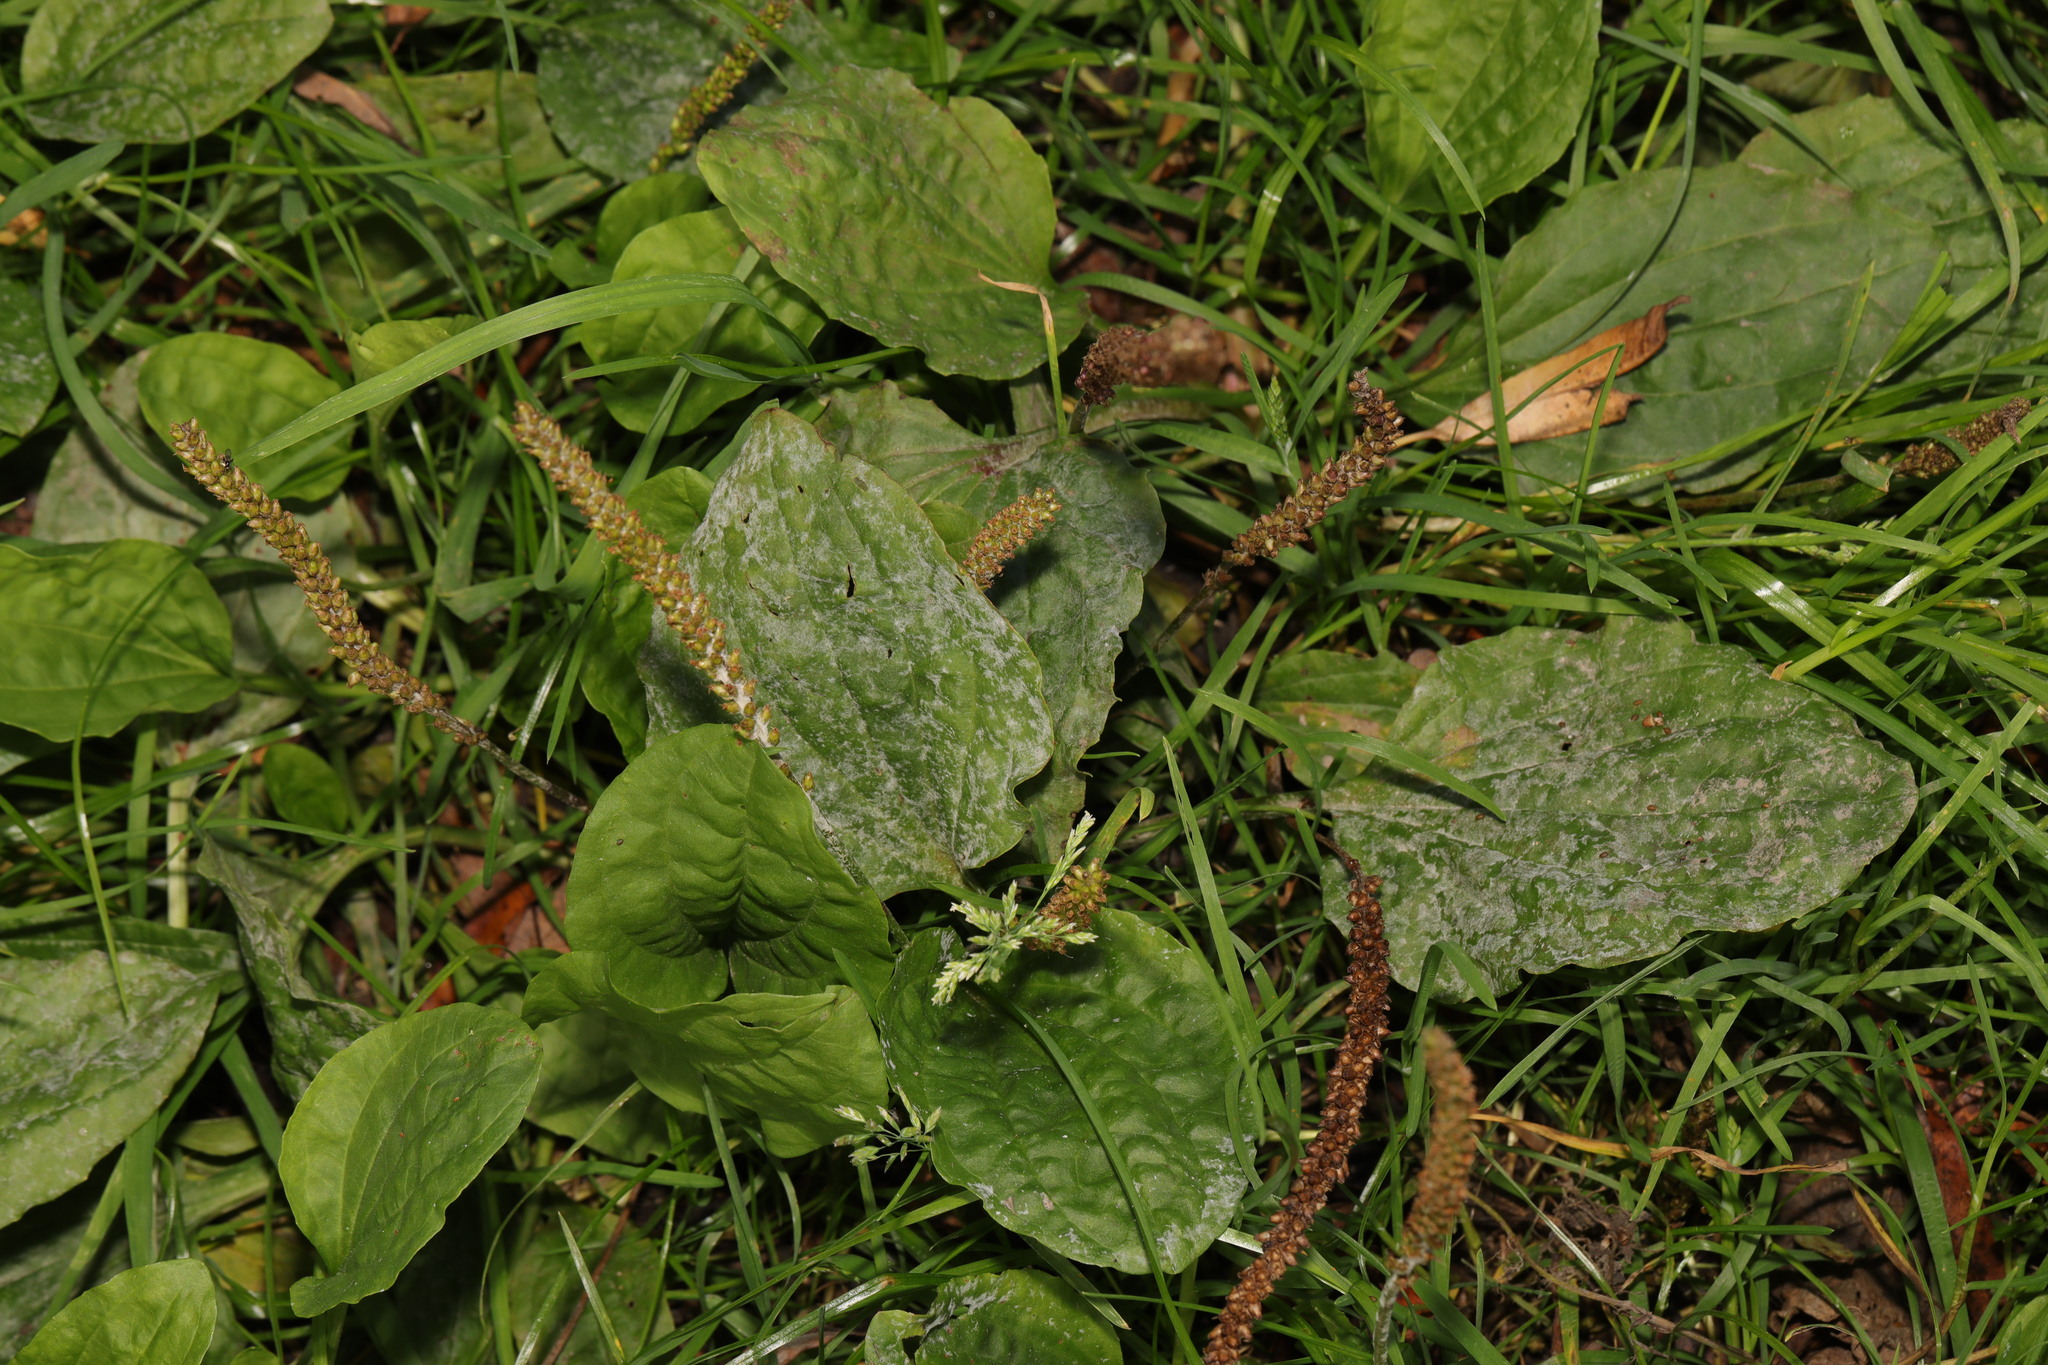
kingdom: Plantae
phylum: Tracheophyta
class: Magnoliopsida
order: Lamiales
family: Plantaginaceae
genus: Plantago
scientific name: Plantago major
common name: Common plantain
